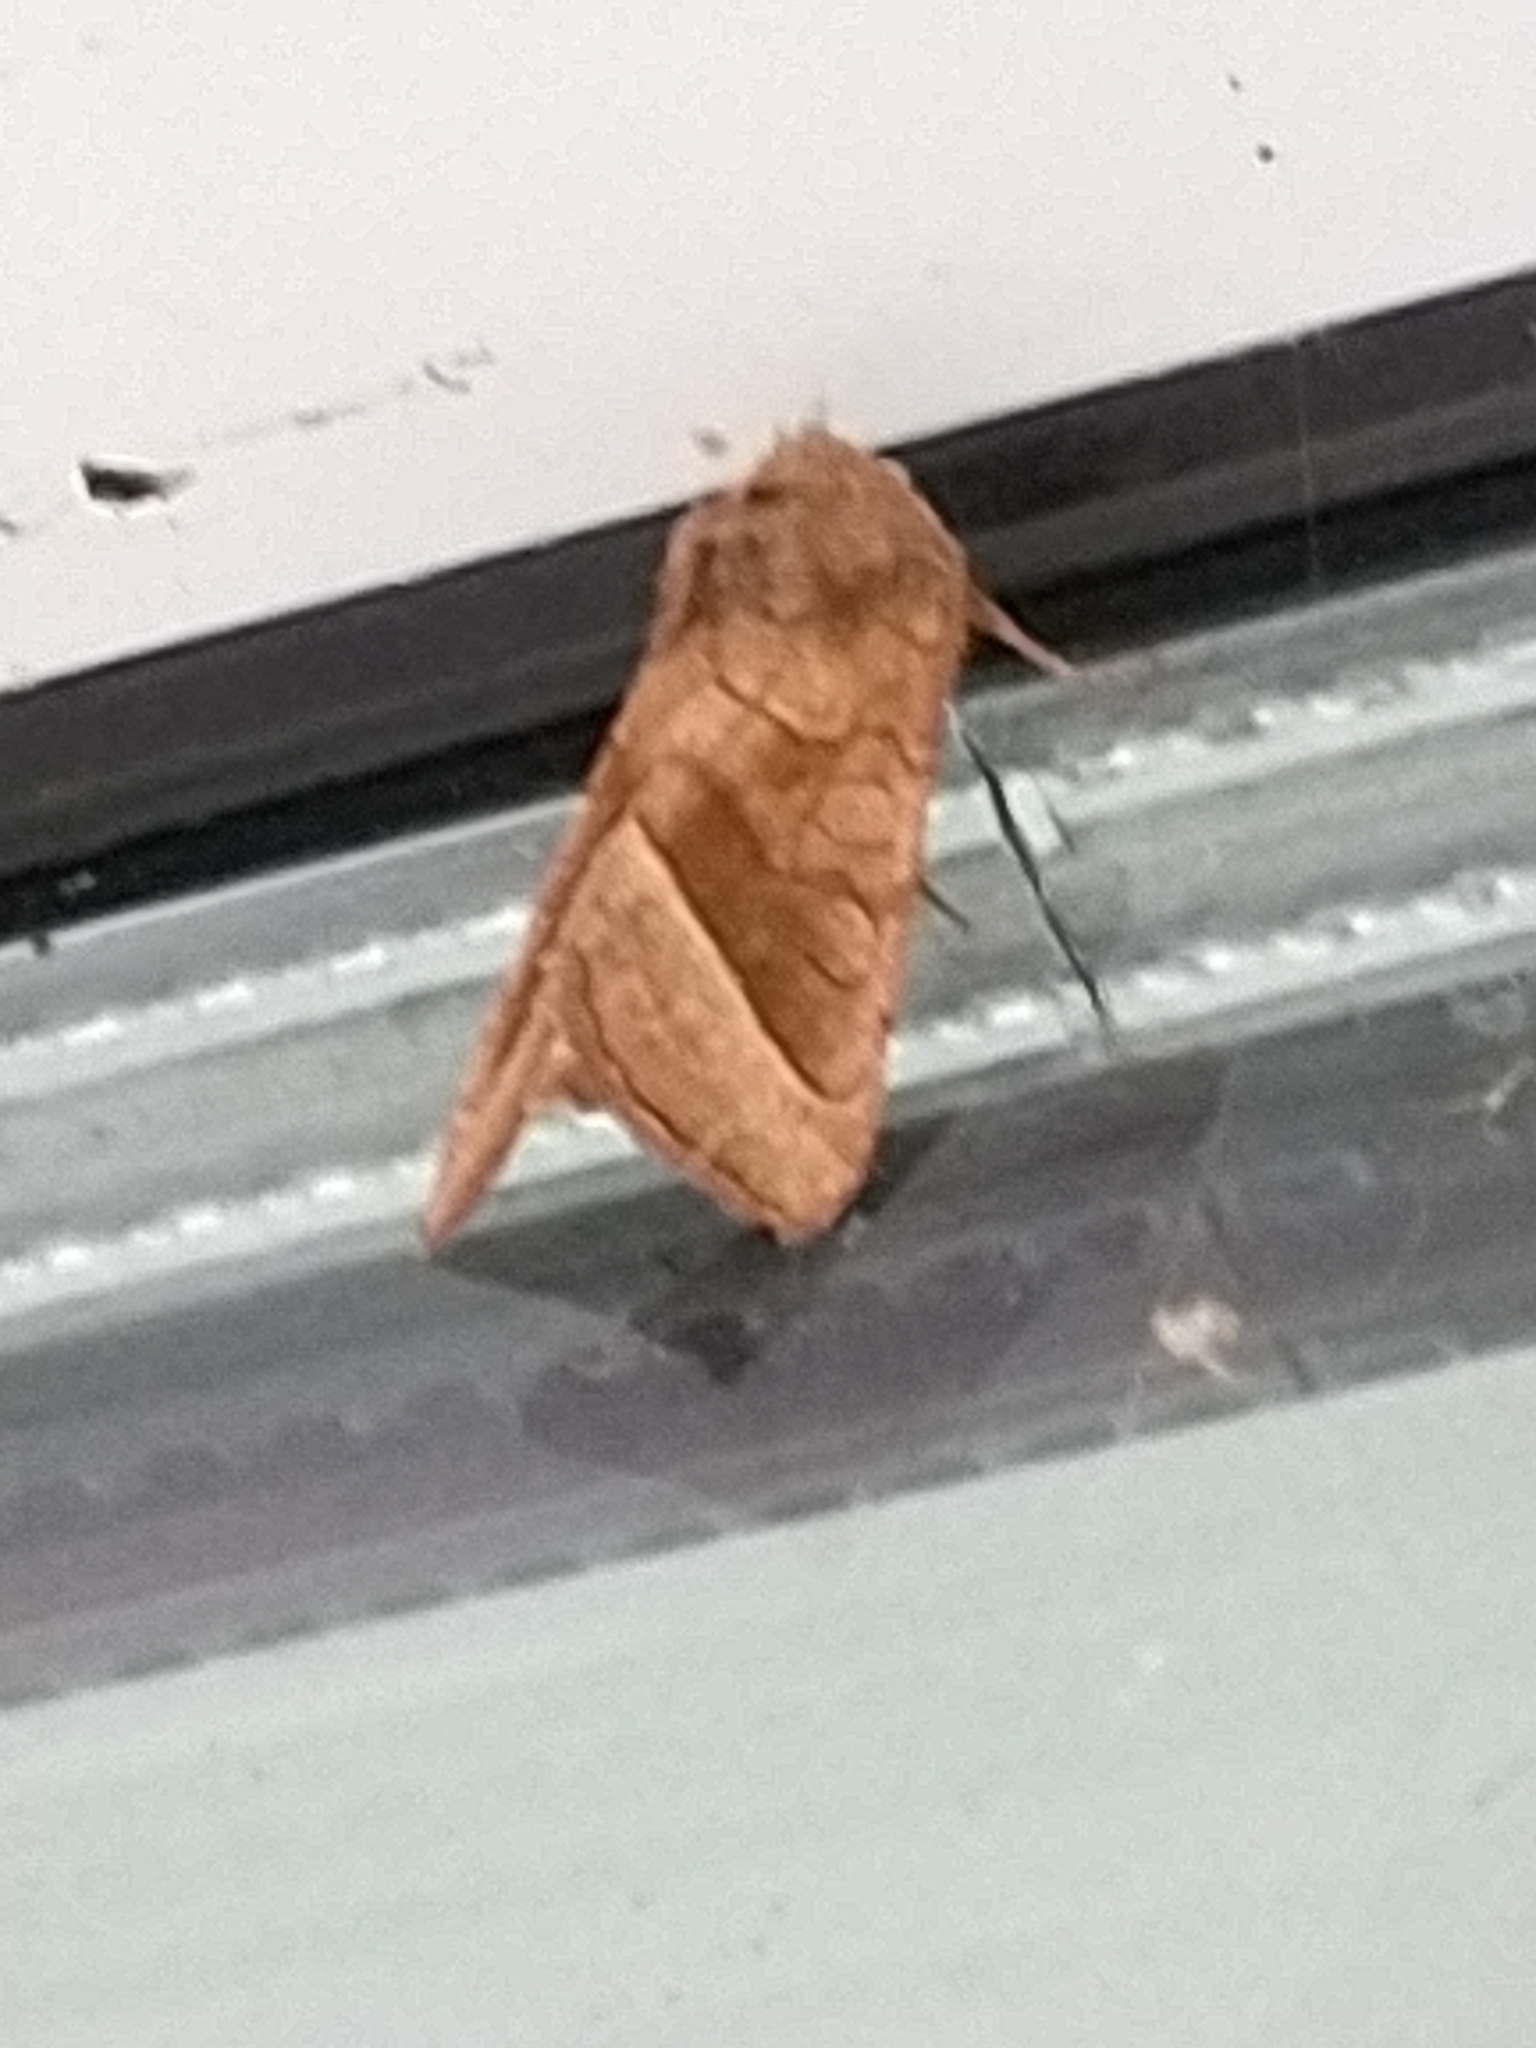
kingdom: Animalia
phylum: Arthropoda
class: Insecta
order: Lepidoptera
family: Noctuidae
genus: Hydraecia
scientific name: Hydraecia micacea
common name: Rosy rustic
